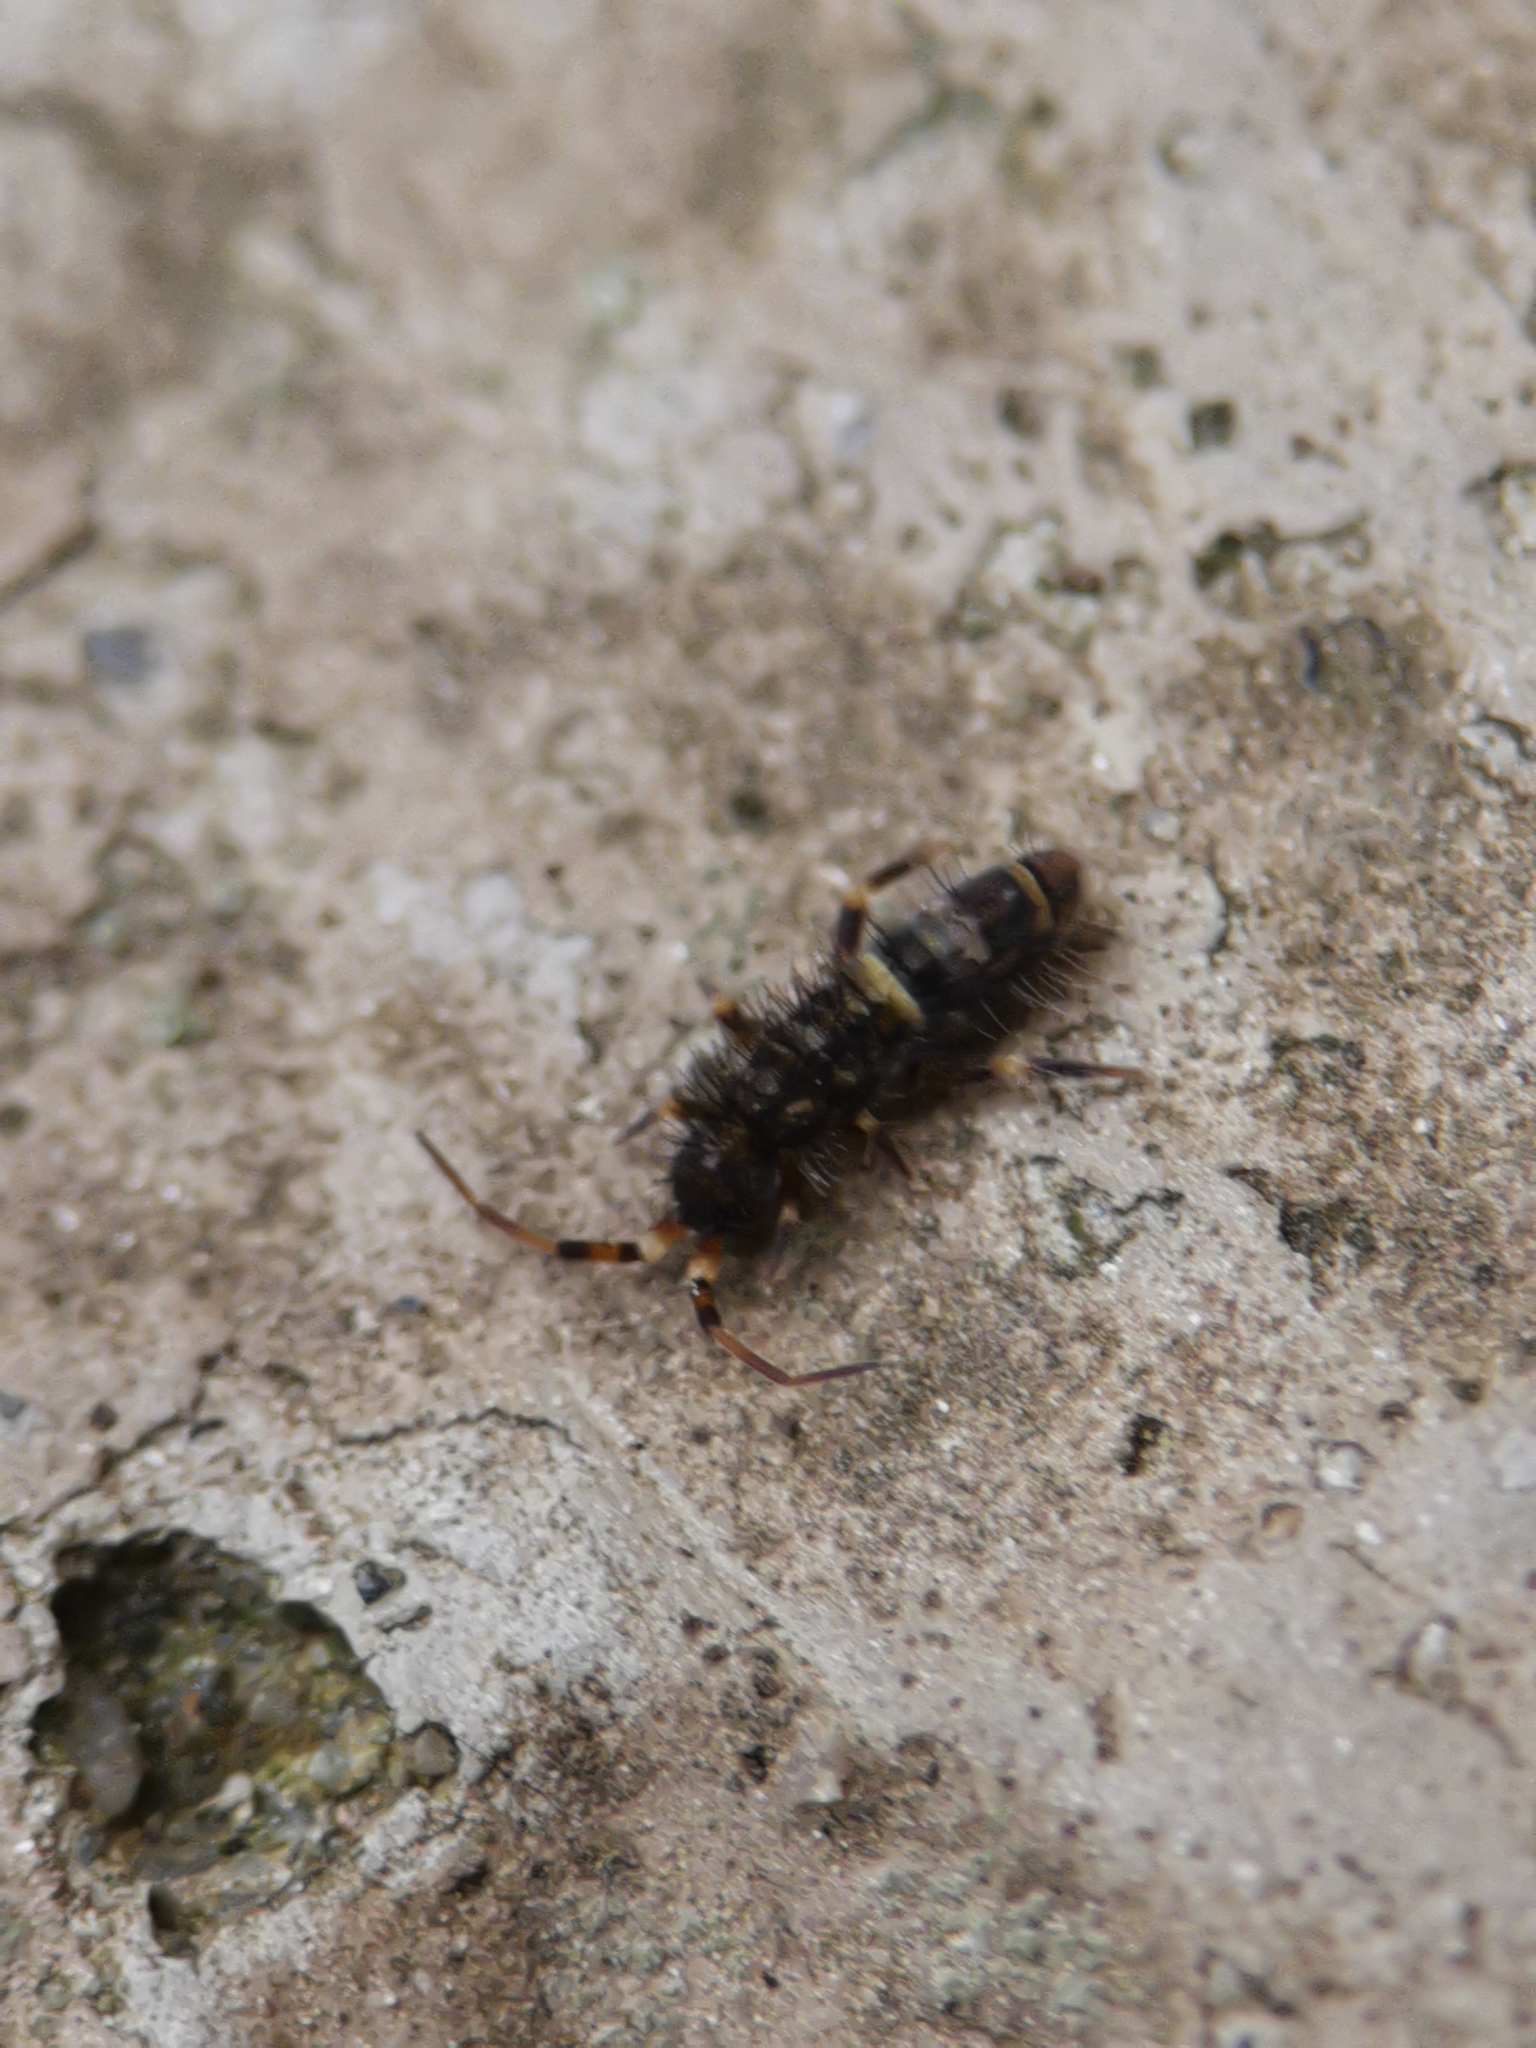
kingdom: Animalia
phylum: Arthropoda
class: Collembola
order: Entomobryomorpha
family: Orchesellidae
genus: Orchesella
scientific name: Orchesella cincta
